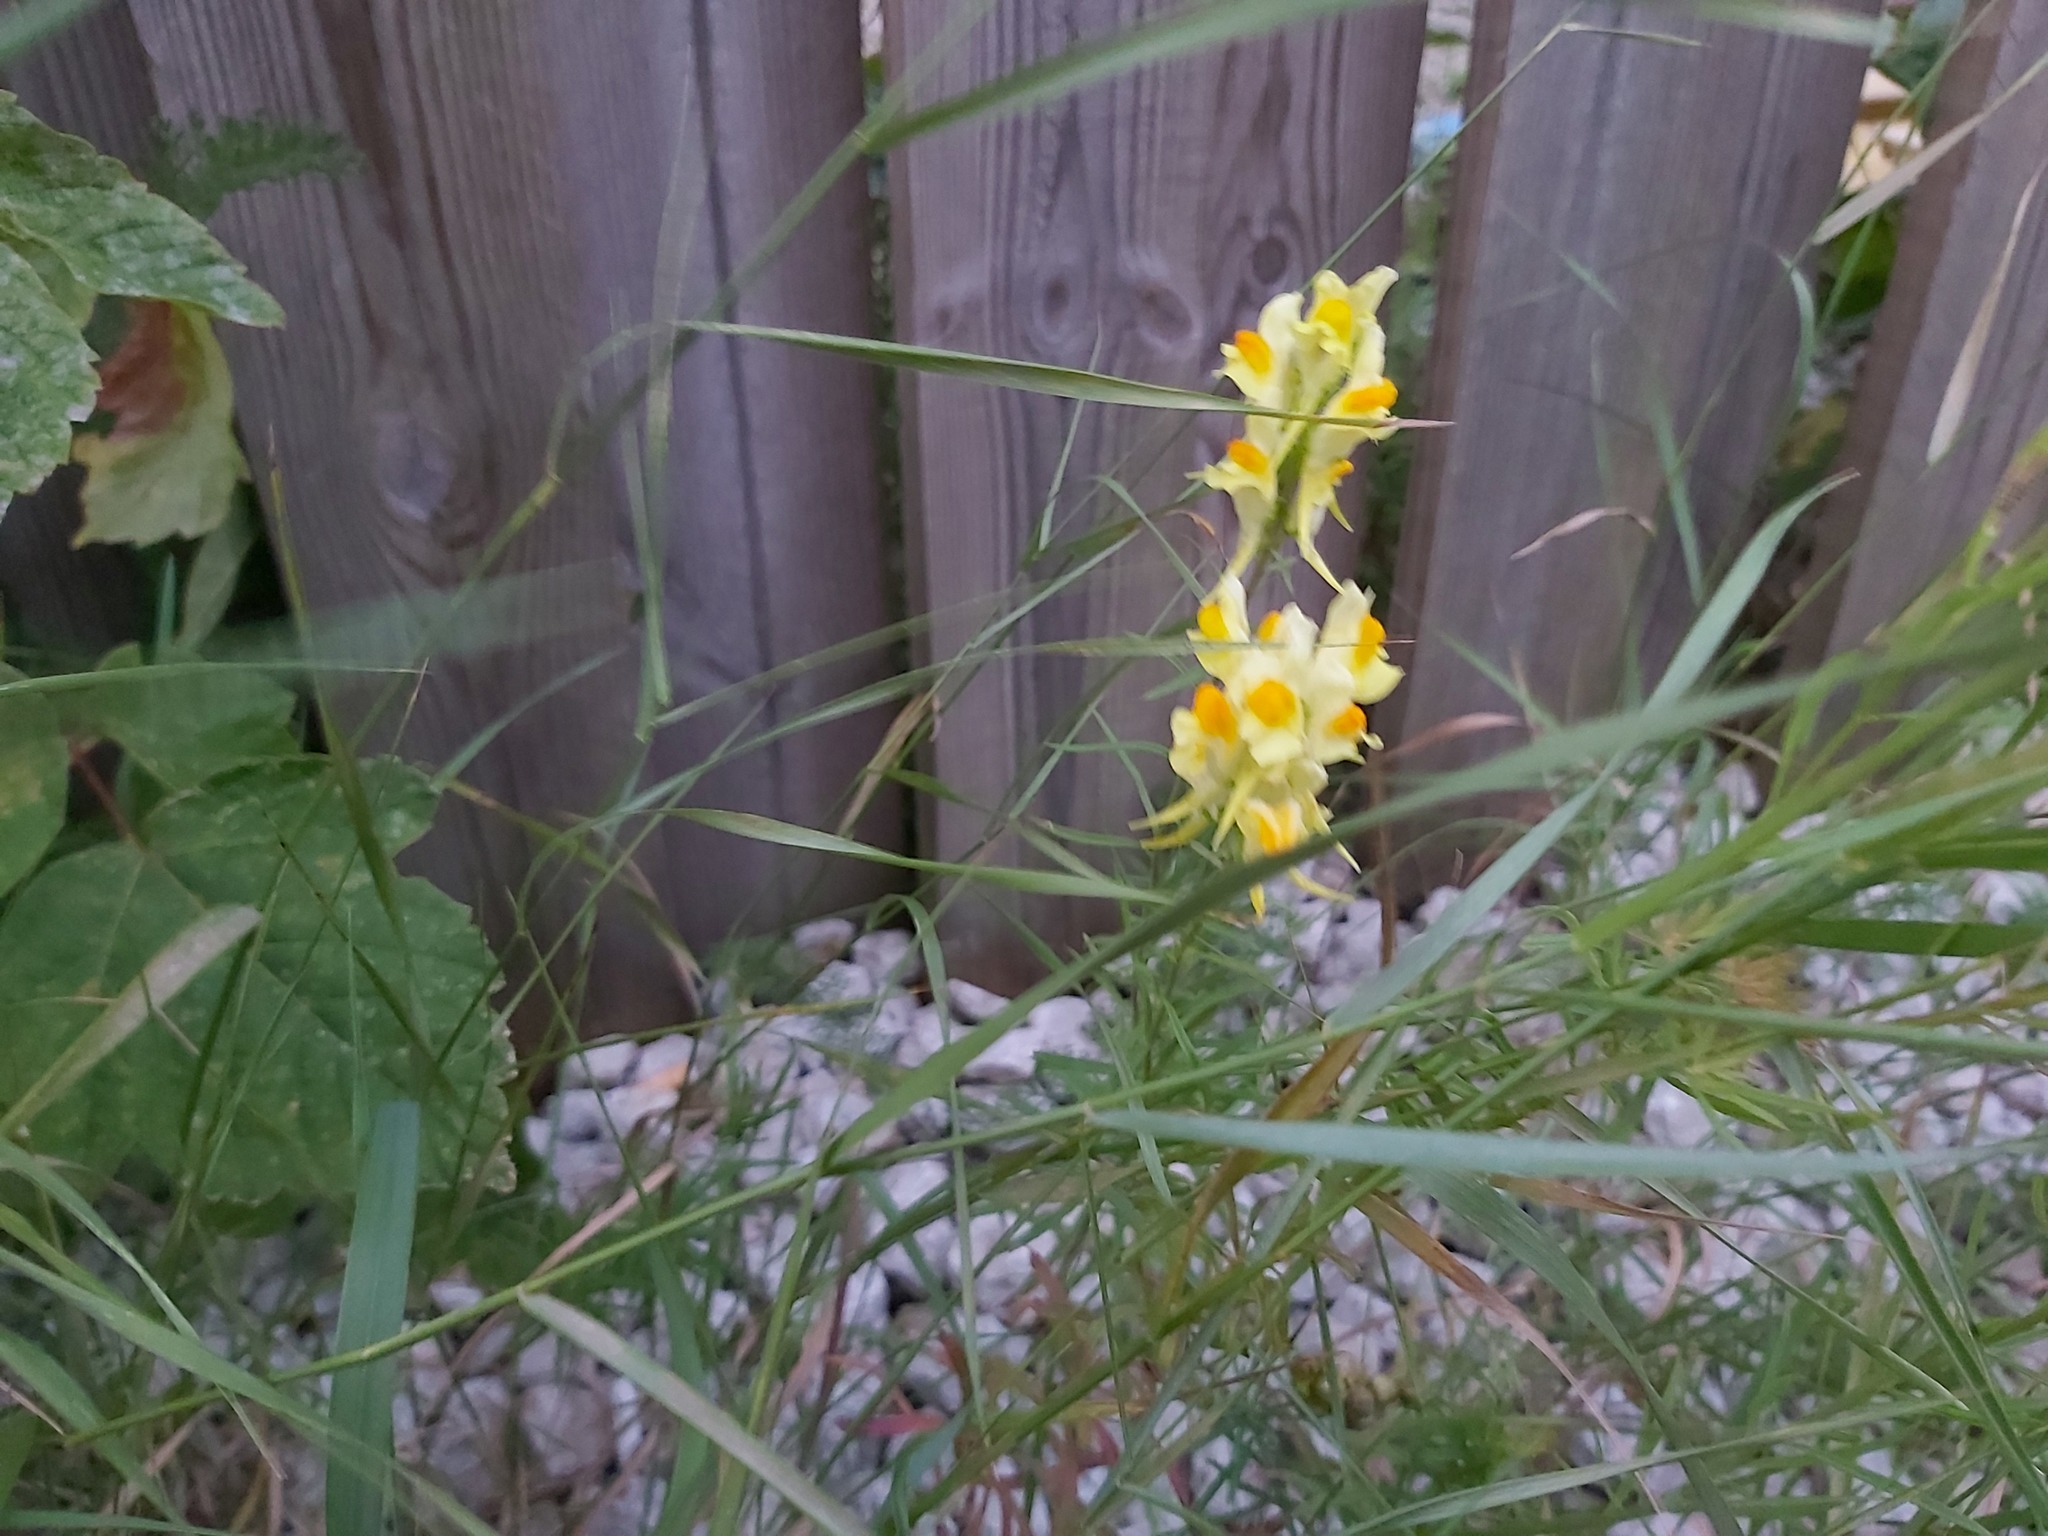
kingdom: Plantae
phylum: Tracheophyta
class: Magnoliopsida
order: Lamiales
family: Plantaginaceae
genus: Linaria
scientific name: Linaria vulgaris
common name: Butter and eggs
